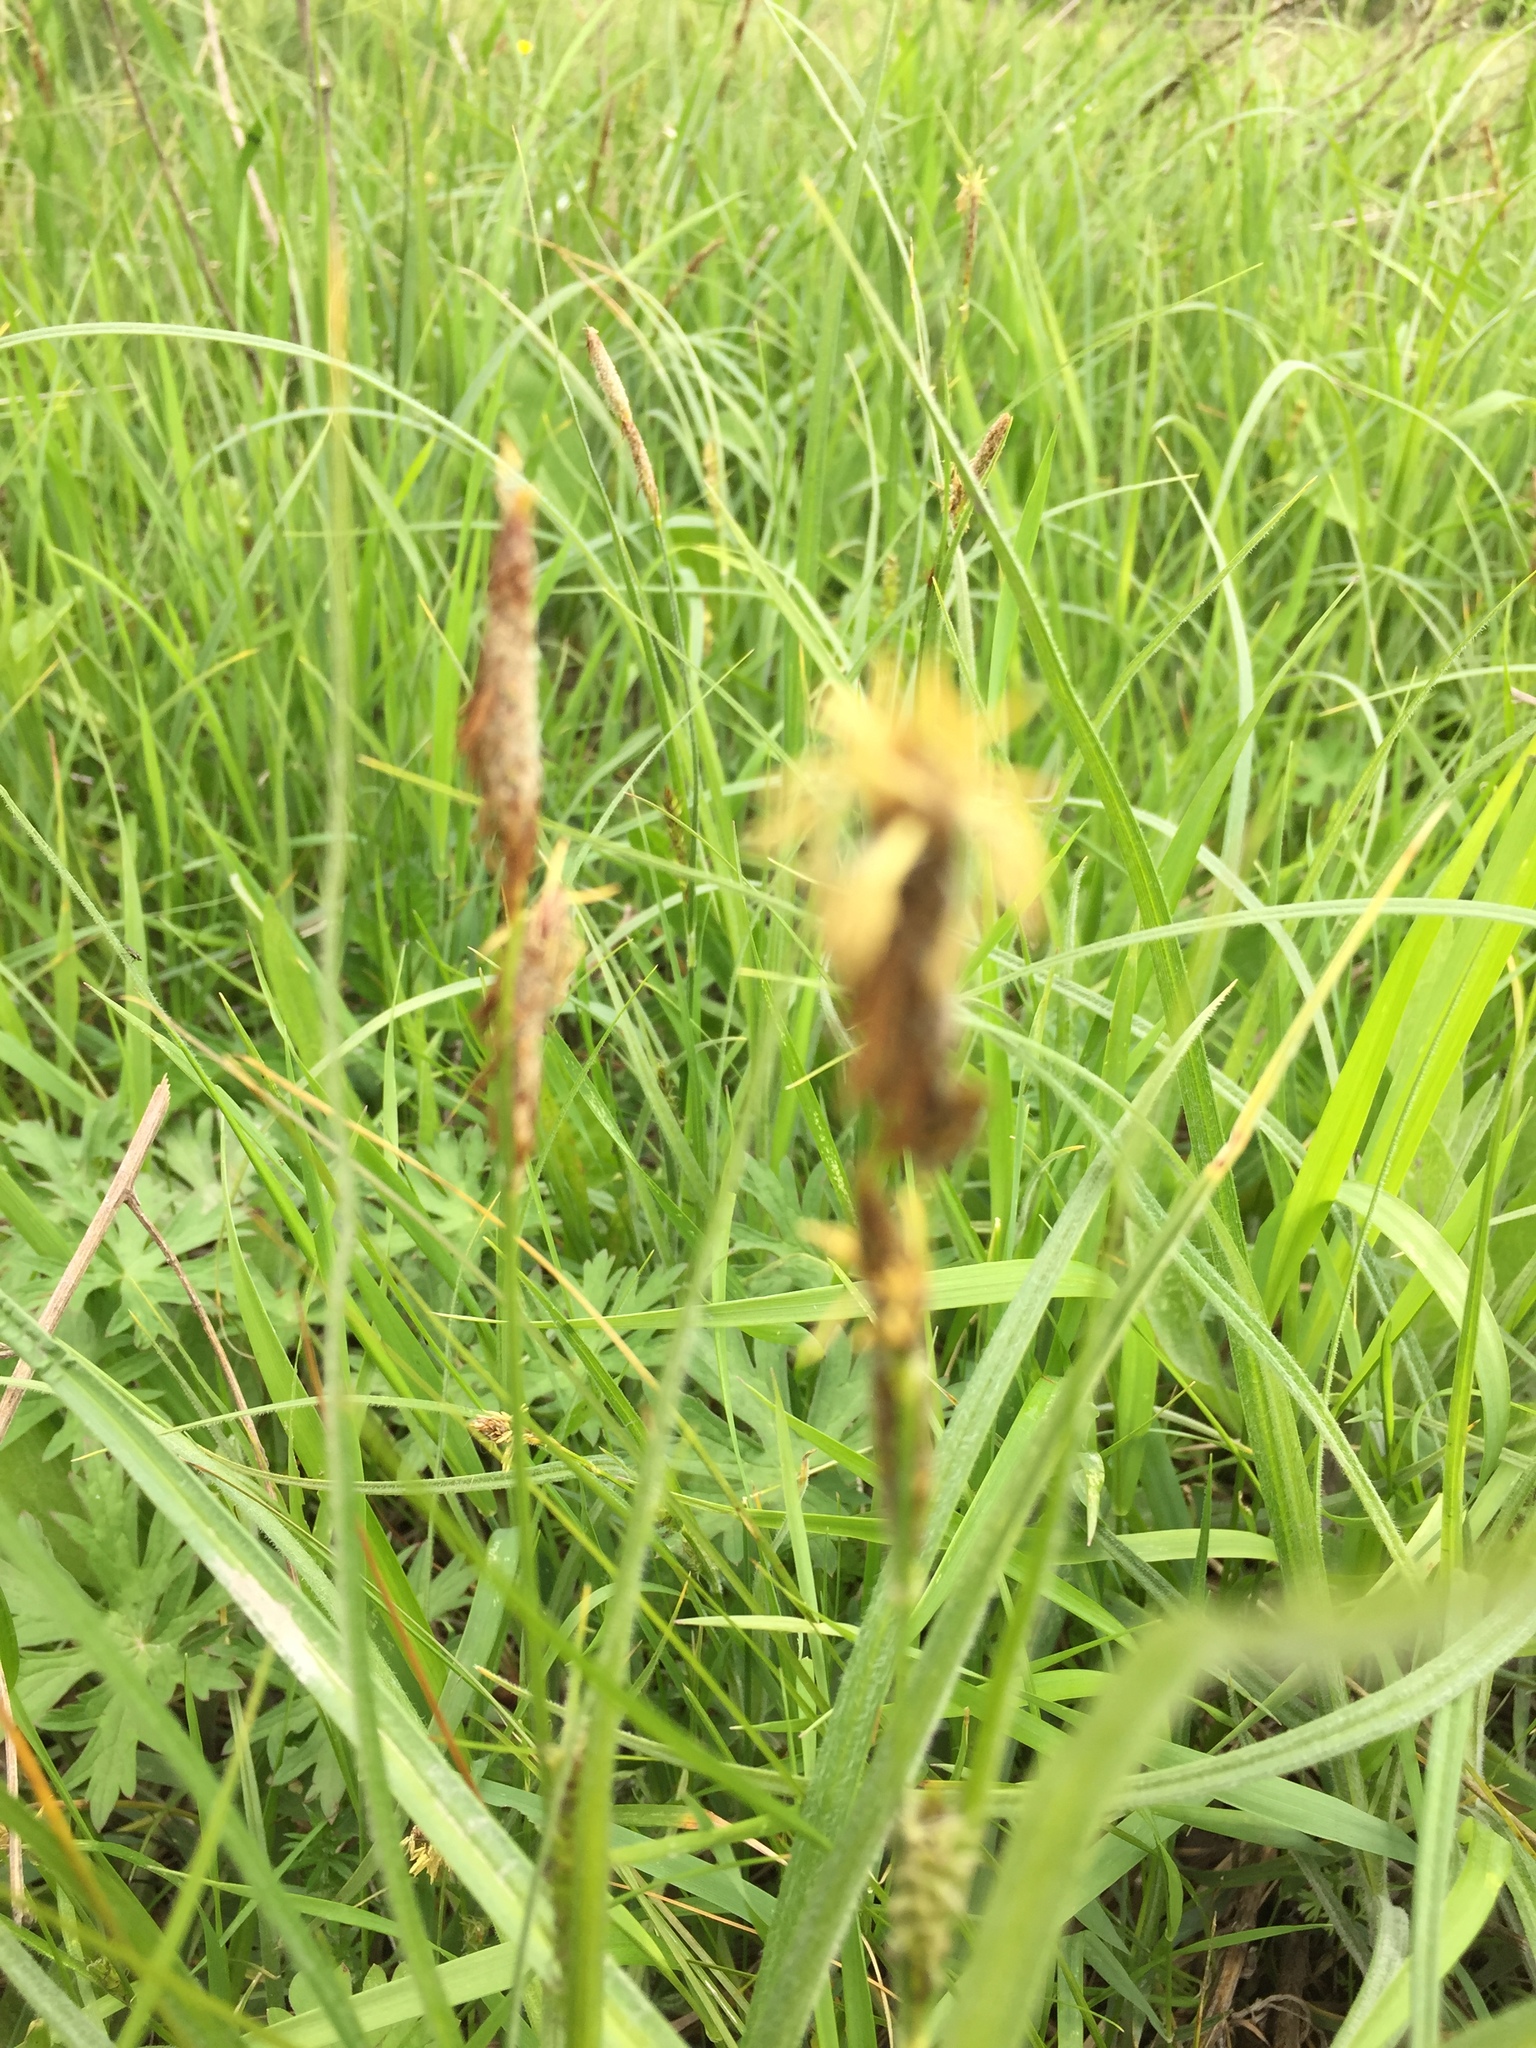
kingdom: Plantae
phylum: Tracheophyta
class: Liliopsida
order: Poales
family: Cyperaceae
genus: Carex
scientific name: Carex hirta
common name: Hairy sedge
